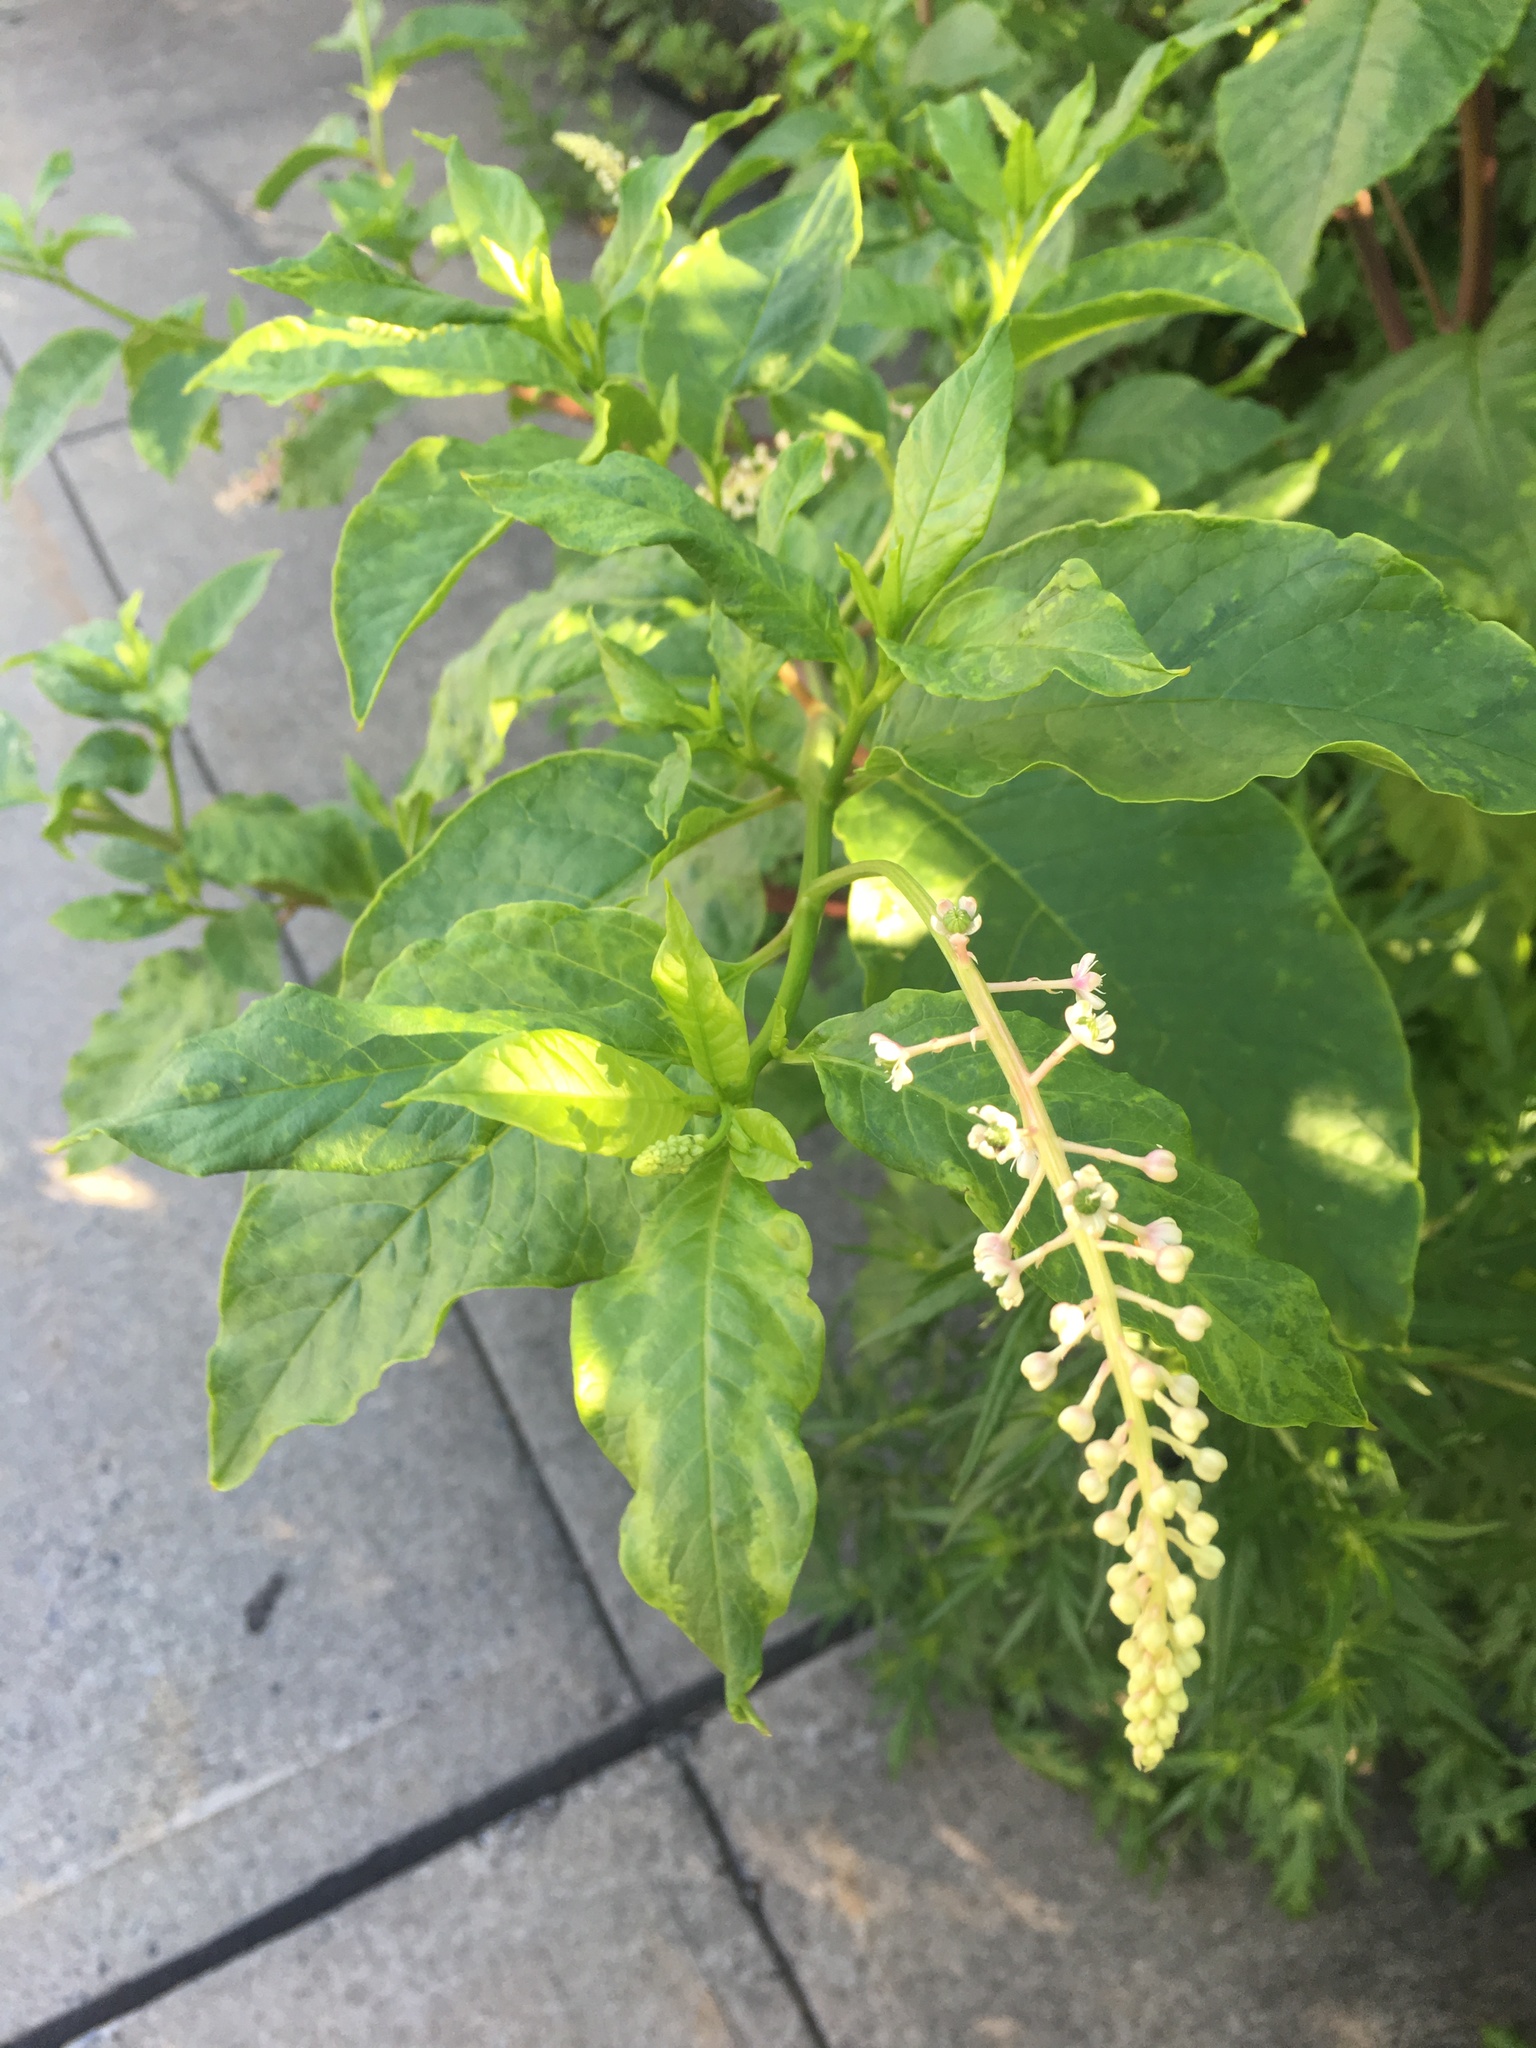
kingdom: Plantae
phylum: Tracheophyta
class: Magnoliopsida
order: Caryophyllales
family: Phytolaccaceae
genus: Phytolacca
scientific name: Phytolacca americana
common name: American pokeweed
